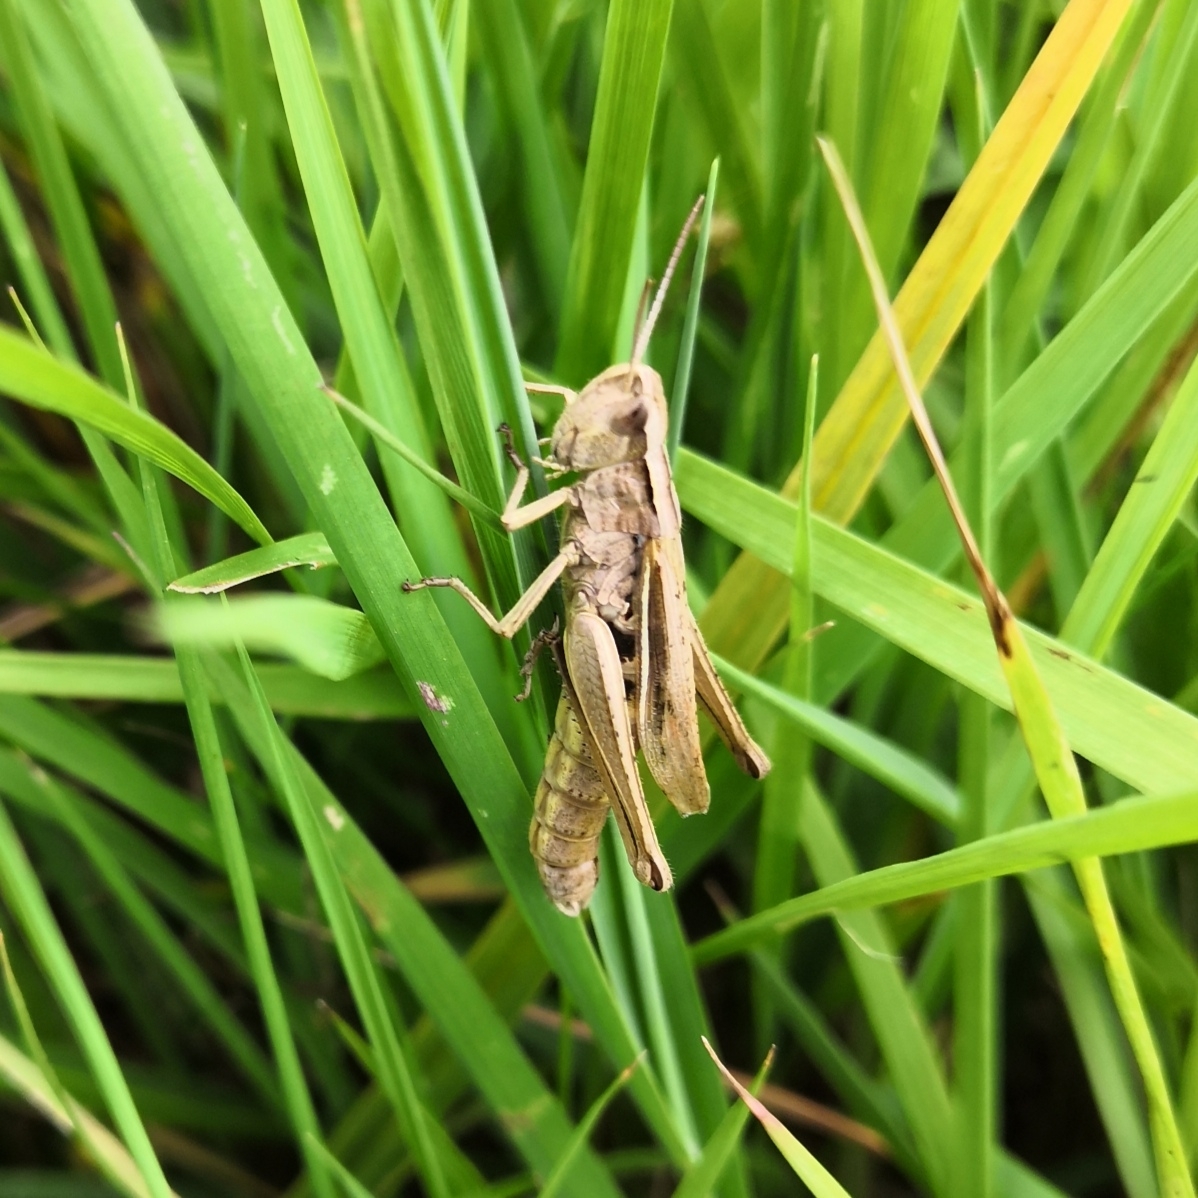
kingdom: Animalia
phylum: Arthropoda
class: Insecta
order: Orthoptera
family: Acrididae
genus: Chorthippus
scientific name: Chorthippus albomarginatus
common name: Lesser marsh grasshopper
